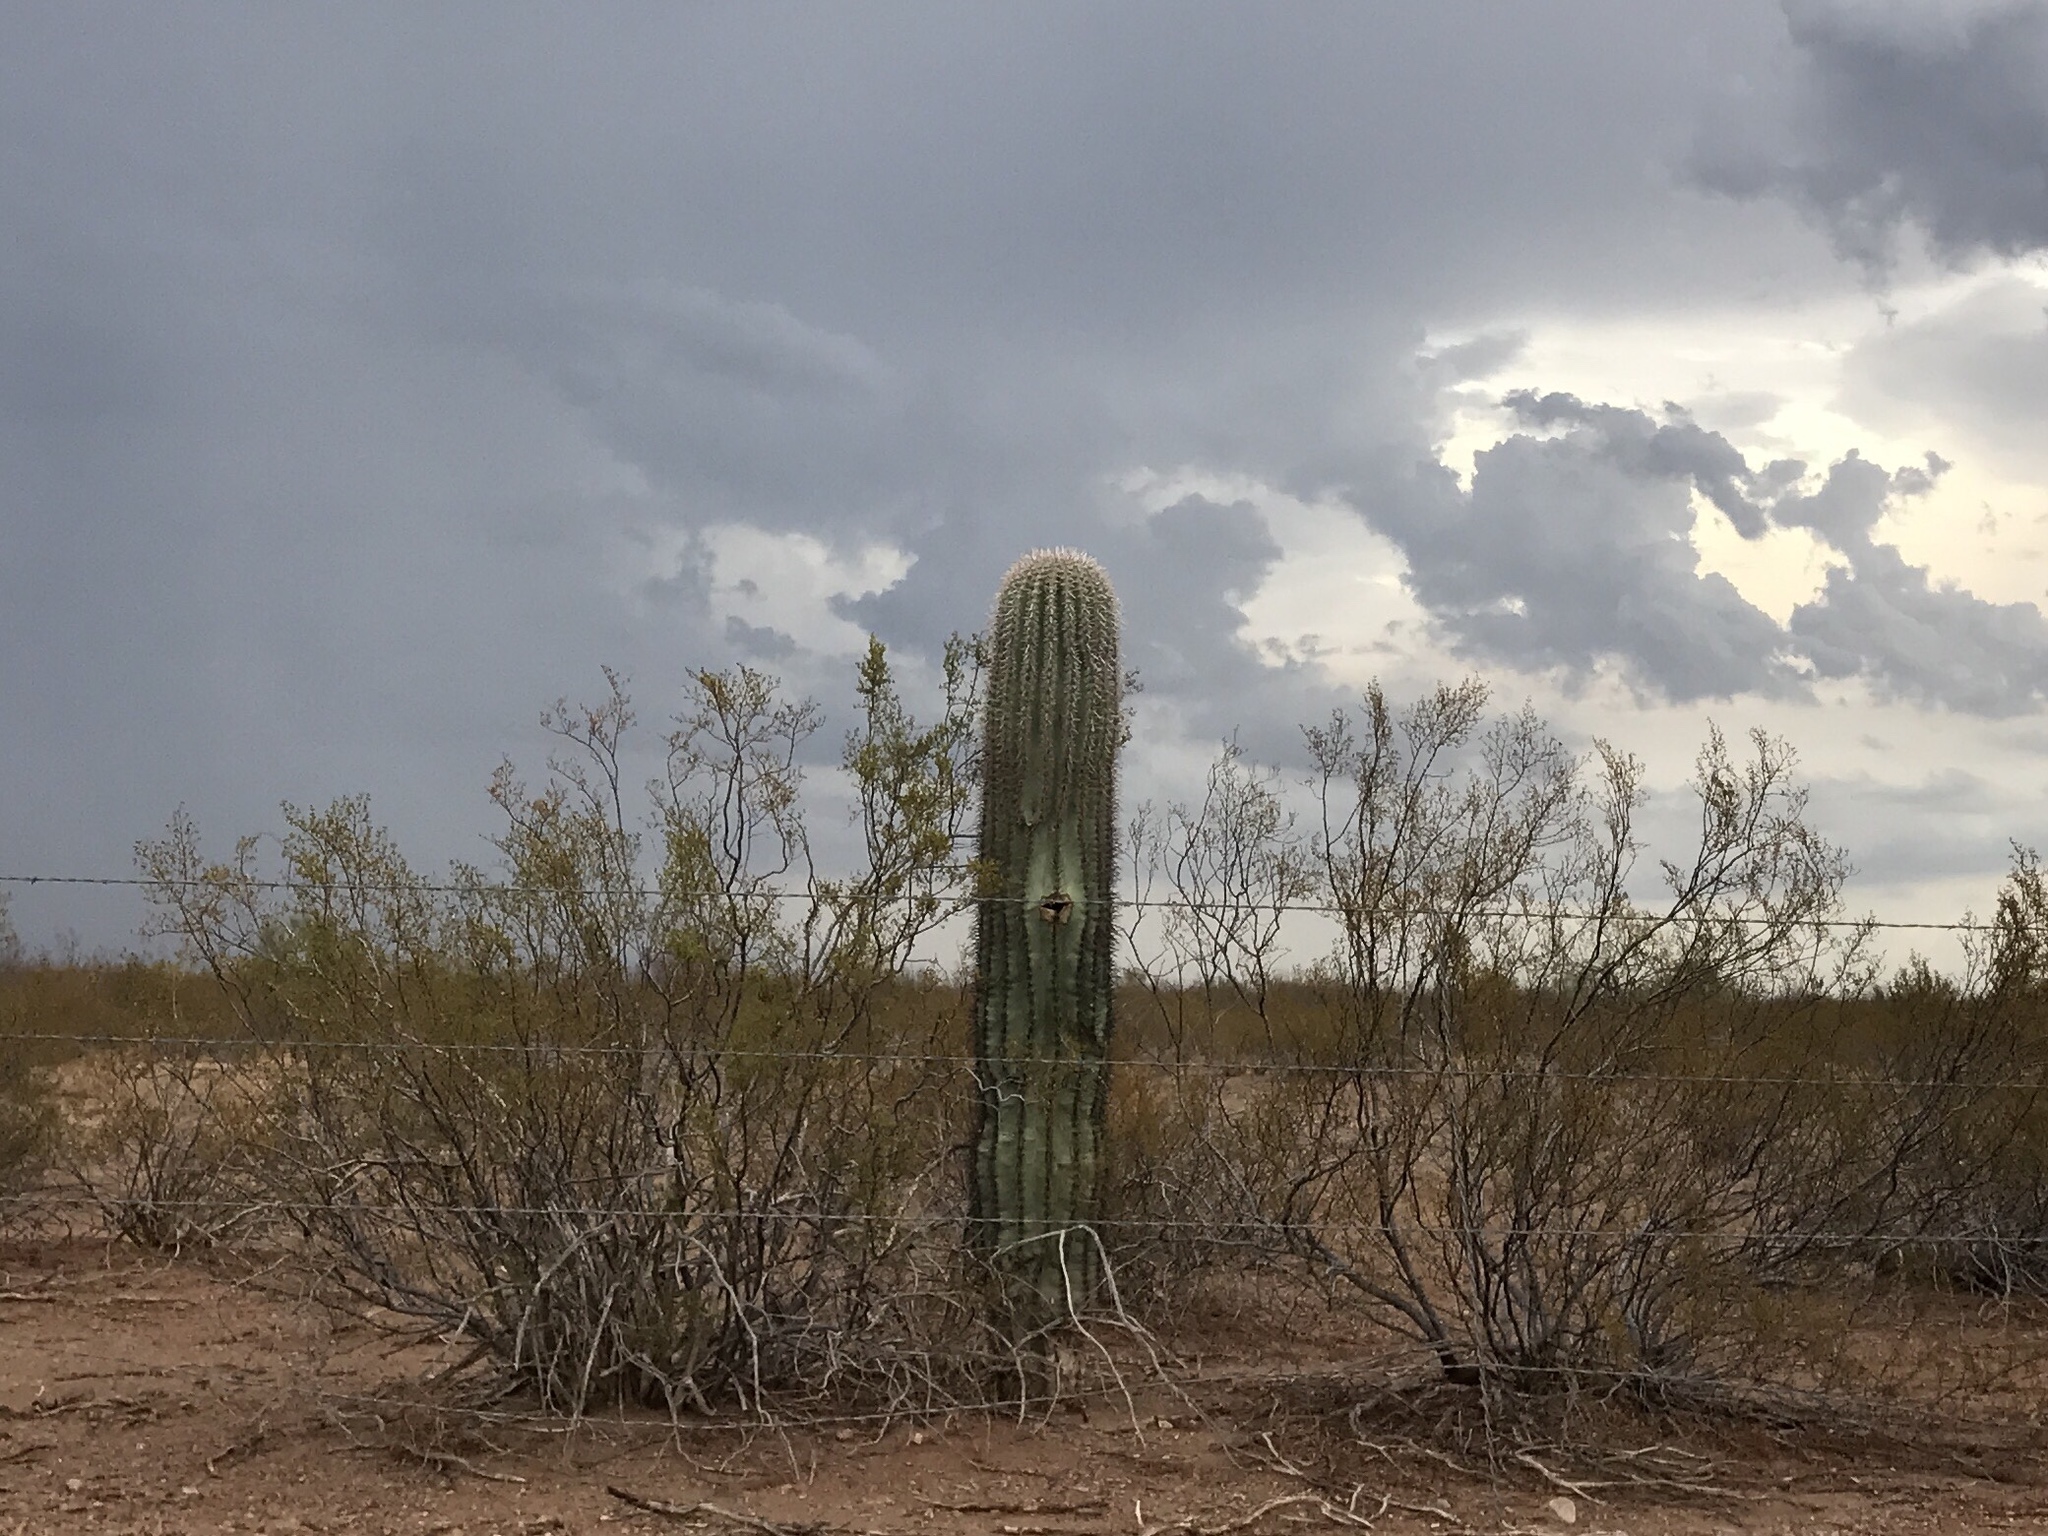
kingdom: Plantae
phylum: Tracheophyta
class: Magnoliopsida
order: Caryophyllales
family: Cactaceae
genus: Carnegiea
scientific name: Carnegiea gigantea
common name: Saguaro
